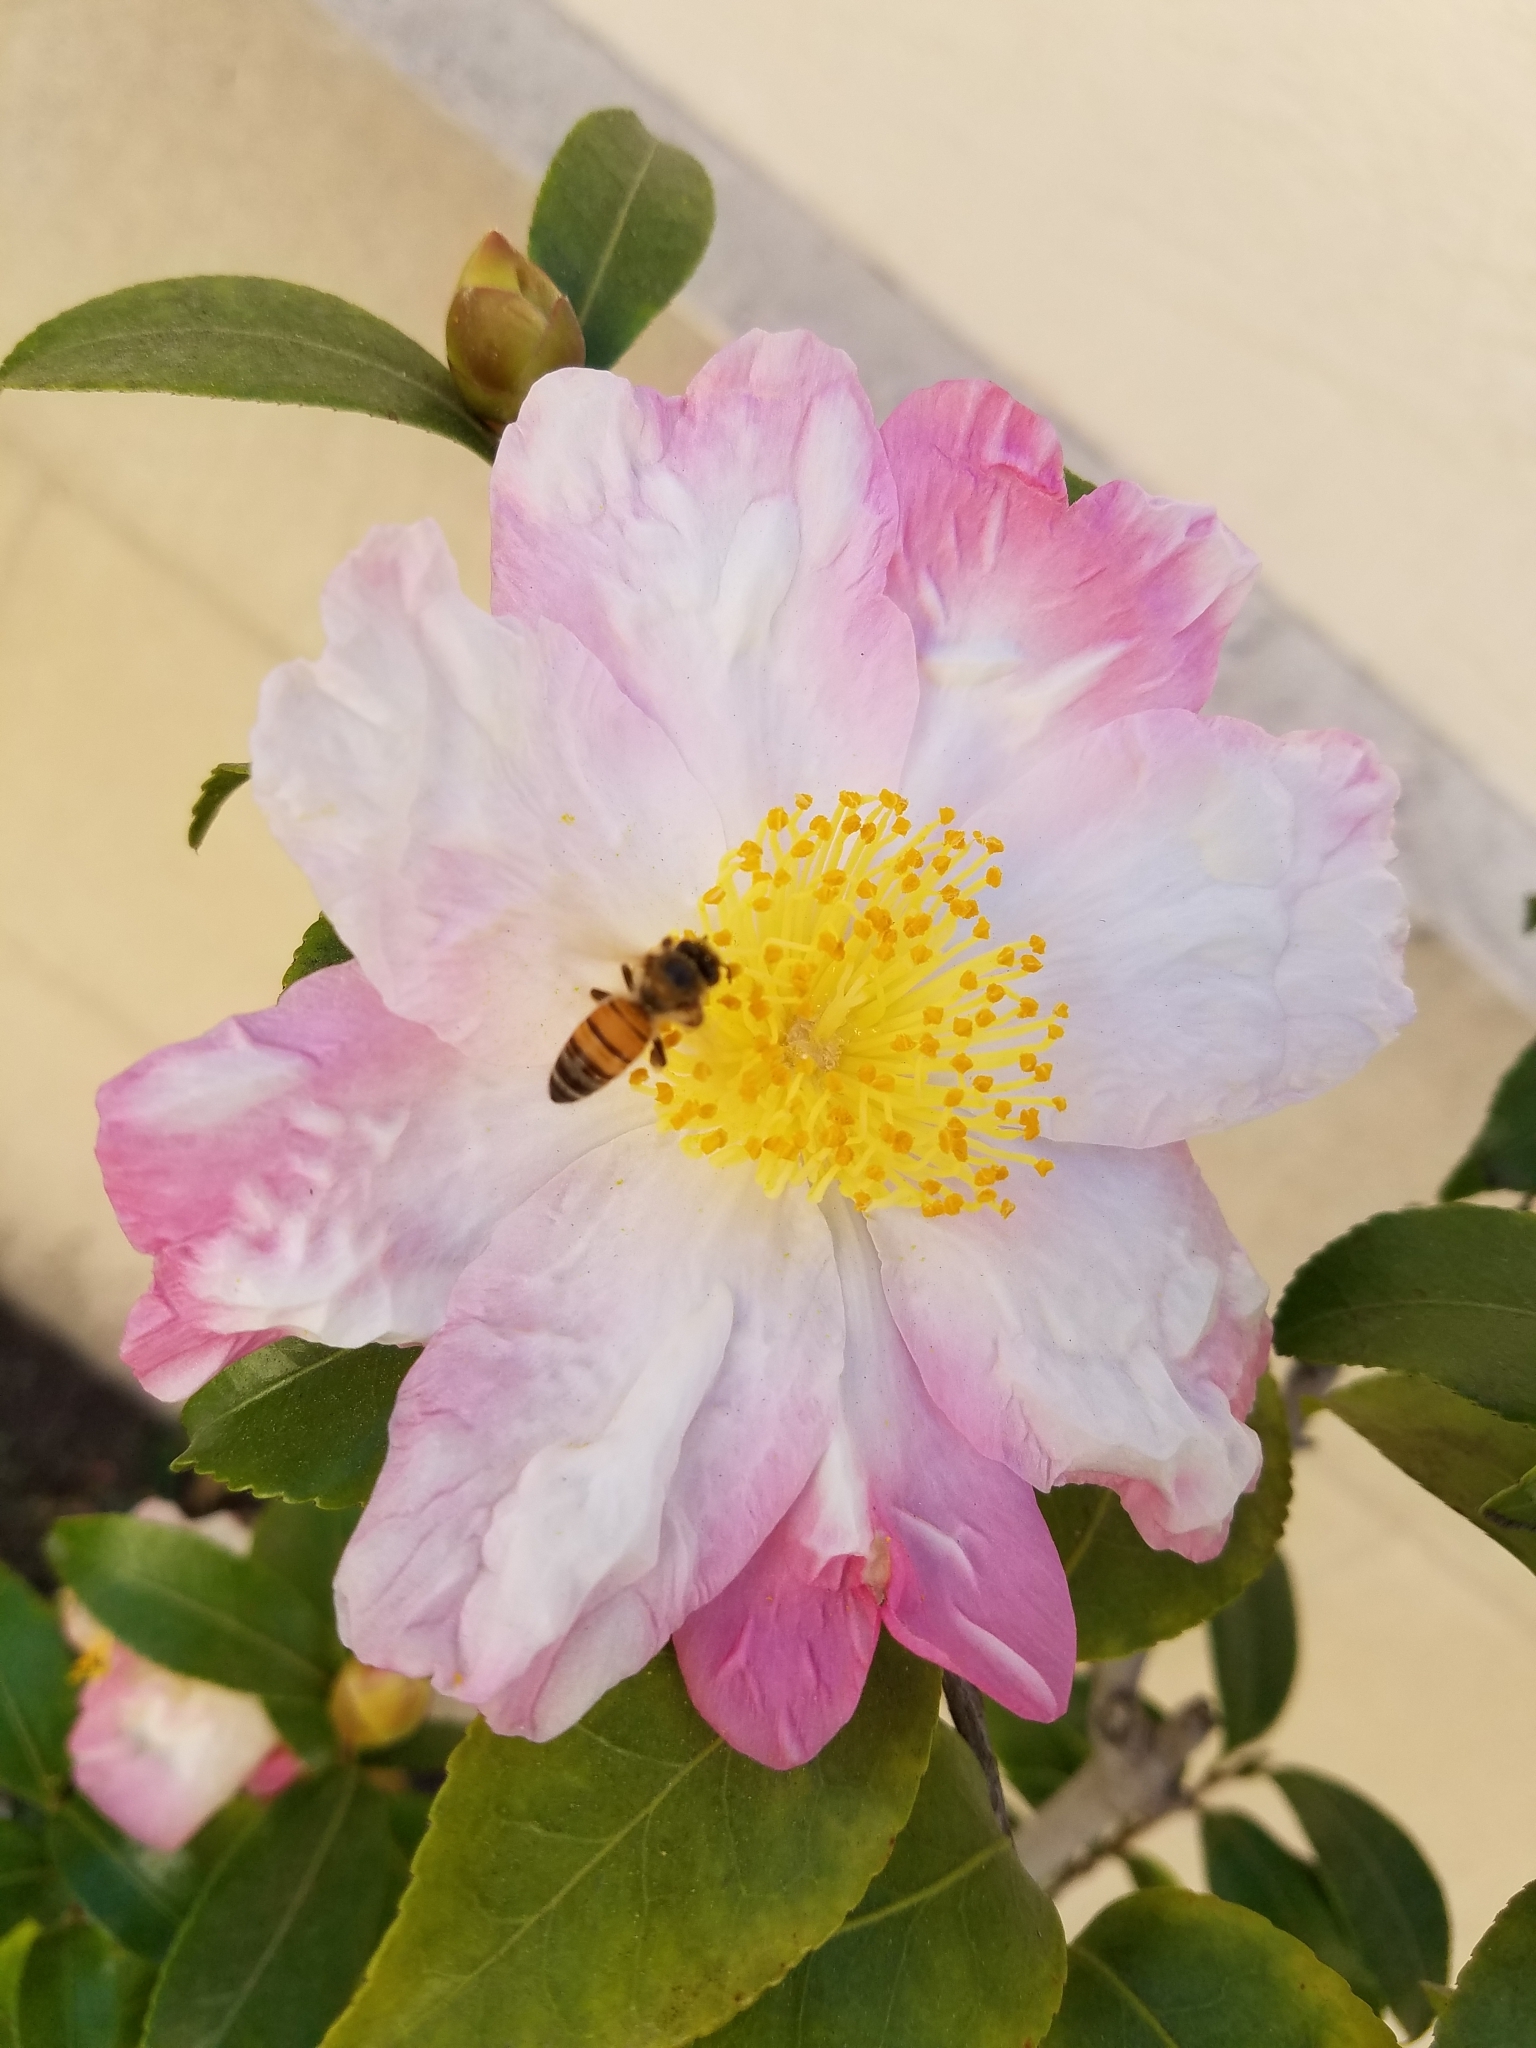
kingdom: Animalia
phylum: Arthropoda
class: Insecta
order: Hymenoptera
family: Apidae
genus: Apis
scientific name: Apis mellifera
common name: Honey bee
